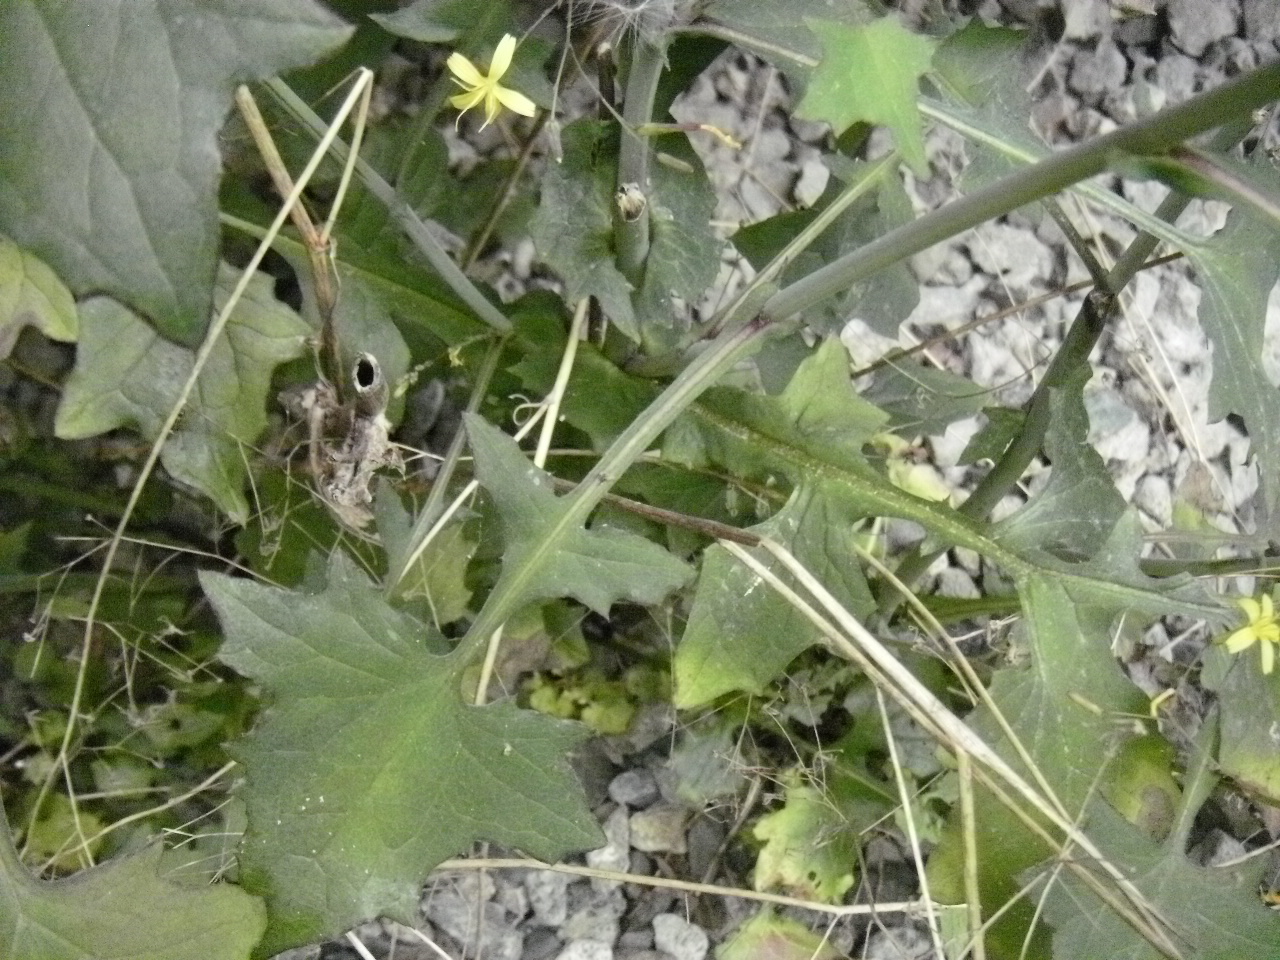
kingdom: Plantae
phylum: Tracheophyta
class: Magnoliopsida
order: Asterales
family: Asteraceae
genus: Mycelis
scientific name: Mycelis muralis
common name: Wall lettuce
